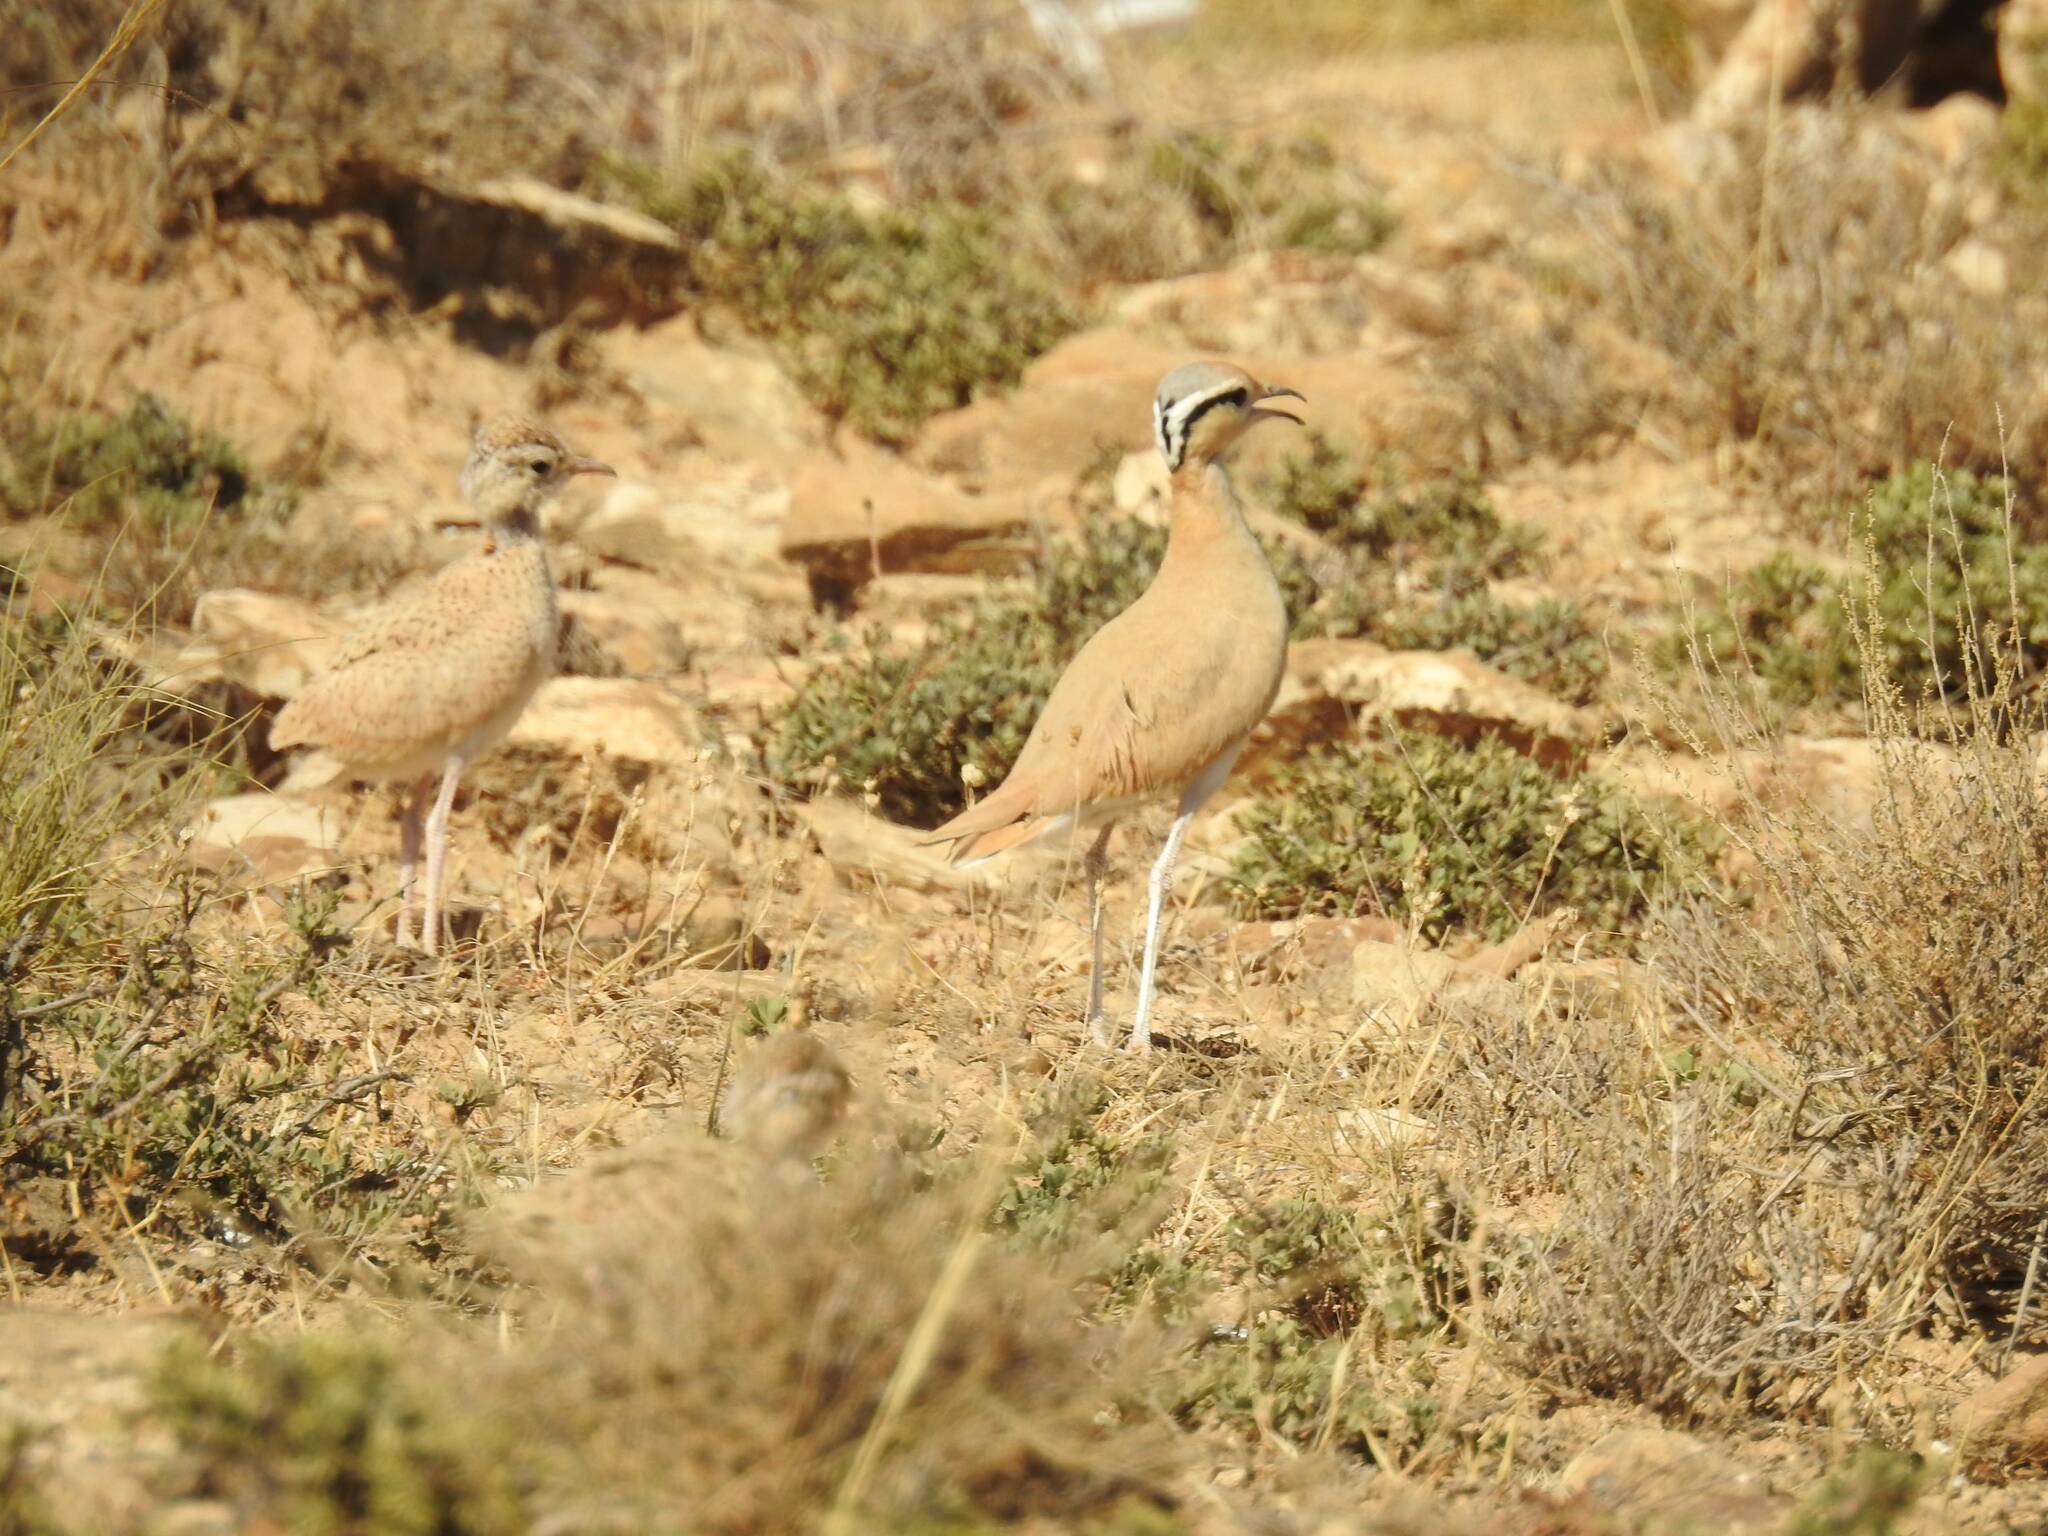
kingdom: Animalia
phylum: Chordata
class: Aves
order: Charadriiformes
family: Glareolidae
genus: Cursorius
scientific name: Cursorius cursor
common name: Cream-colored courser
